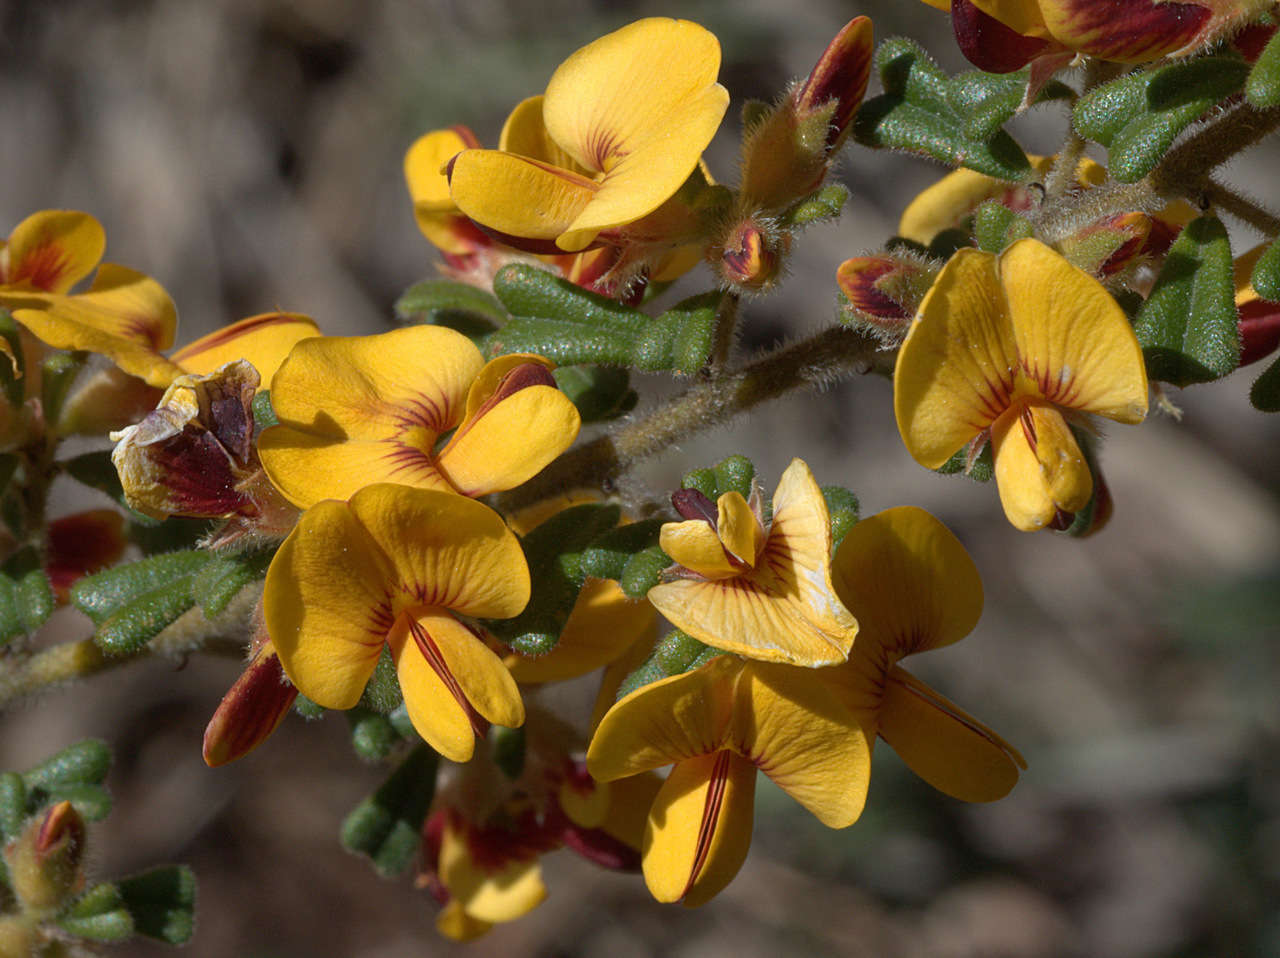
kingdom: Plantae
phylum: Tracheophyta
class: Magnoliopsida
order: Fabales
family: Fabaceae
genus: Pultenaea
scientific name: Pultenaea scabra
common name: Rough bush-pea
